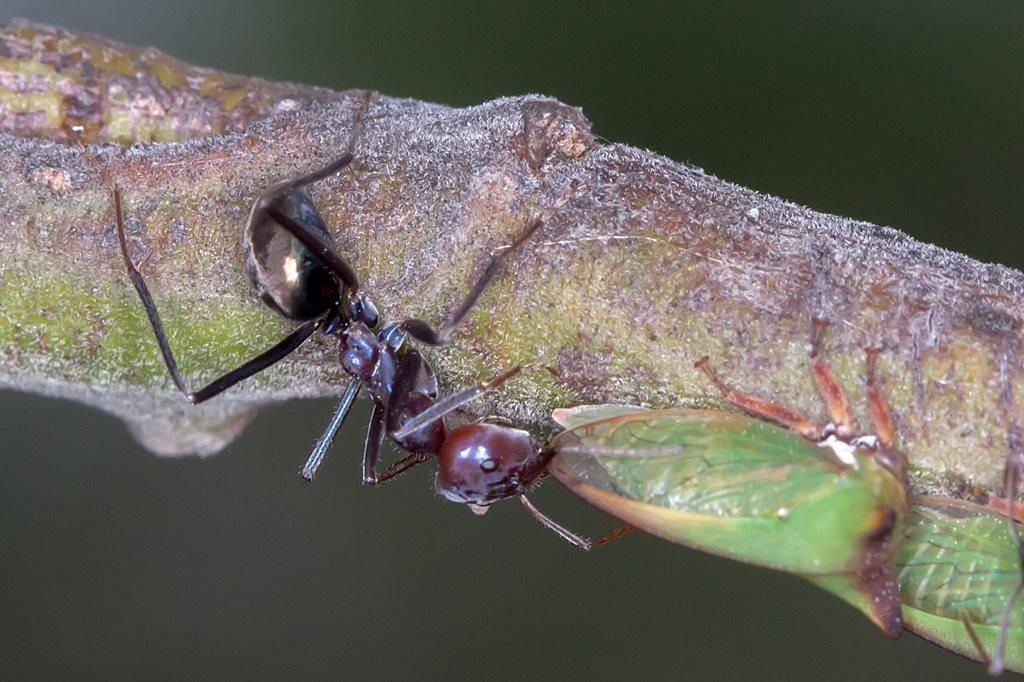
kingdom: Animalia
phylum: Arthropoda
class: Insecta
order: Hymenoptera
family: Formicidae
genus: Iridomyrmex
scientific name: Iridomyrmex purpureus
